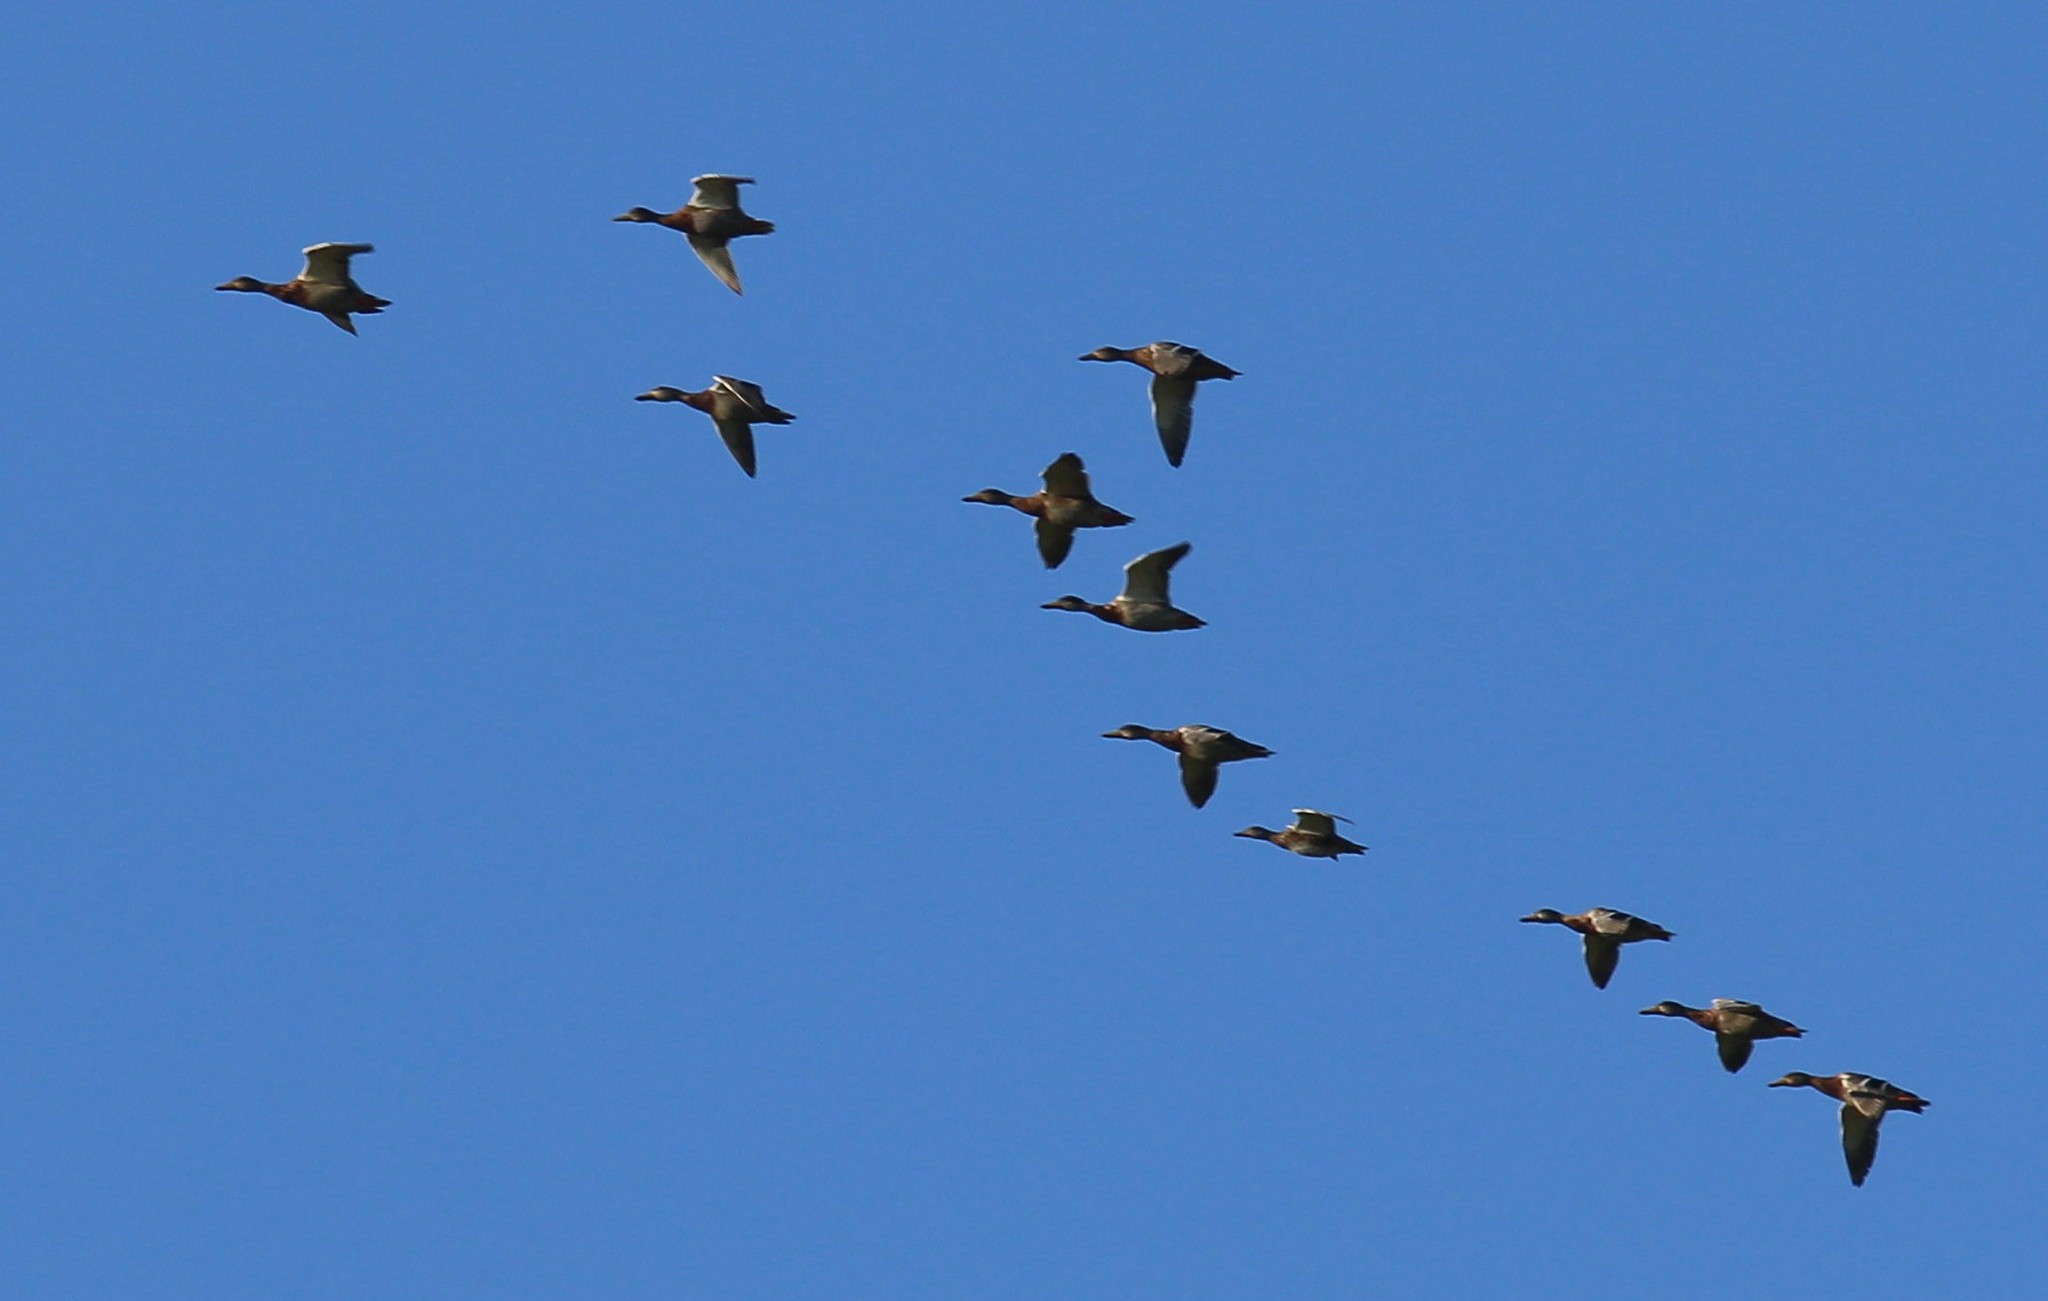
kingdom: Animalia
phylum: Chordata
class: Aves
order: Anseriformes
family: Anatidae
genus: Anas
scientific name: Anas platyrhynchos
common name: Mallard
